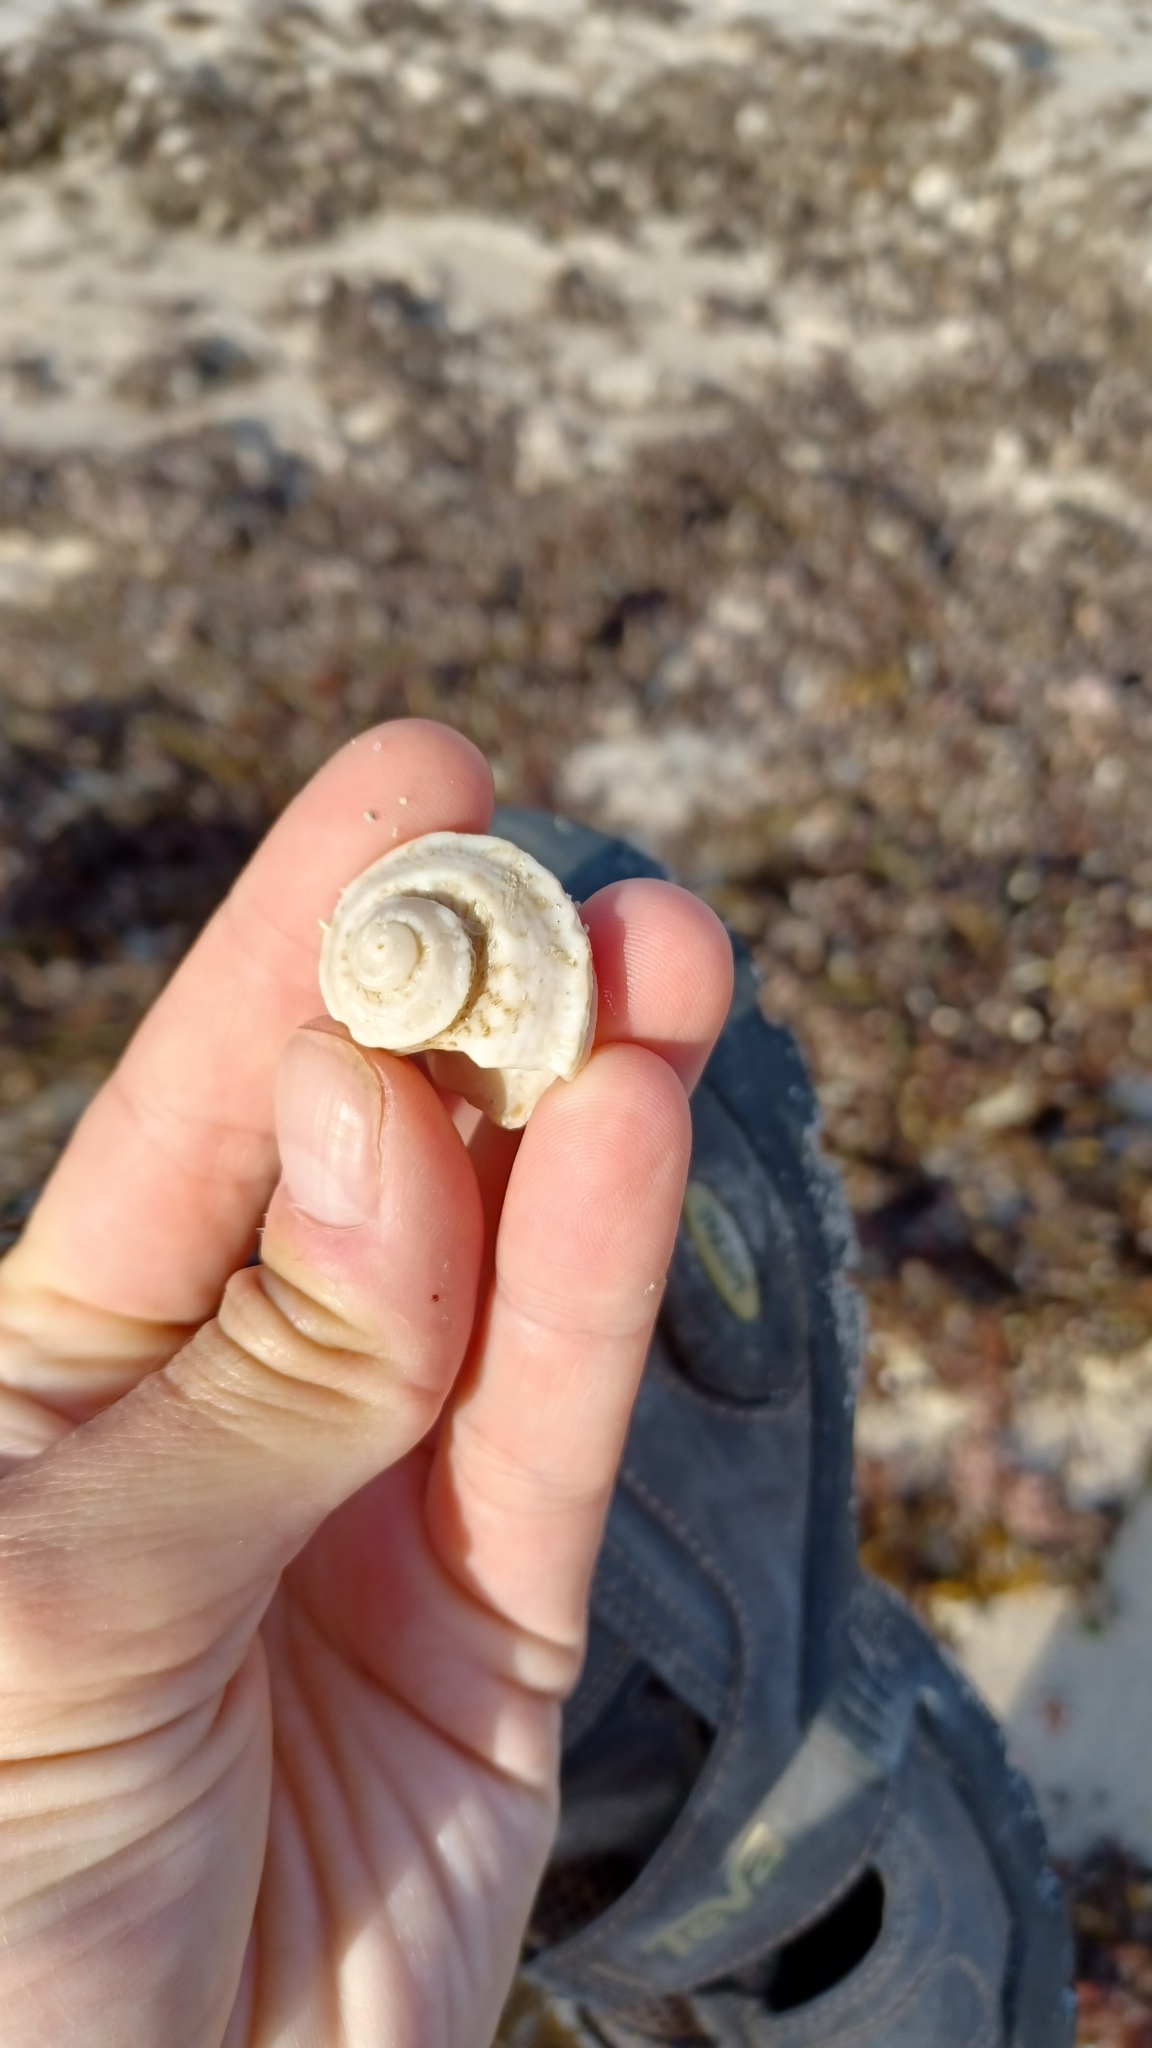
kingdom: Animalia
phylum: Mollusca
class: Gastropoda
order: Trochida
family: Turbinidae
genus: Lunella
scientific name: Lunella torquata
